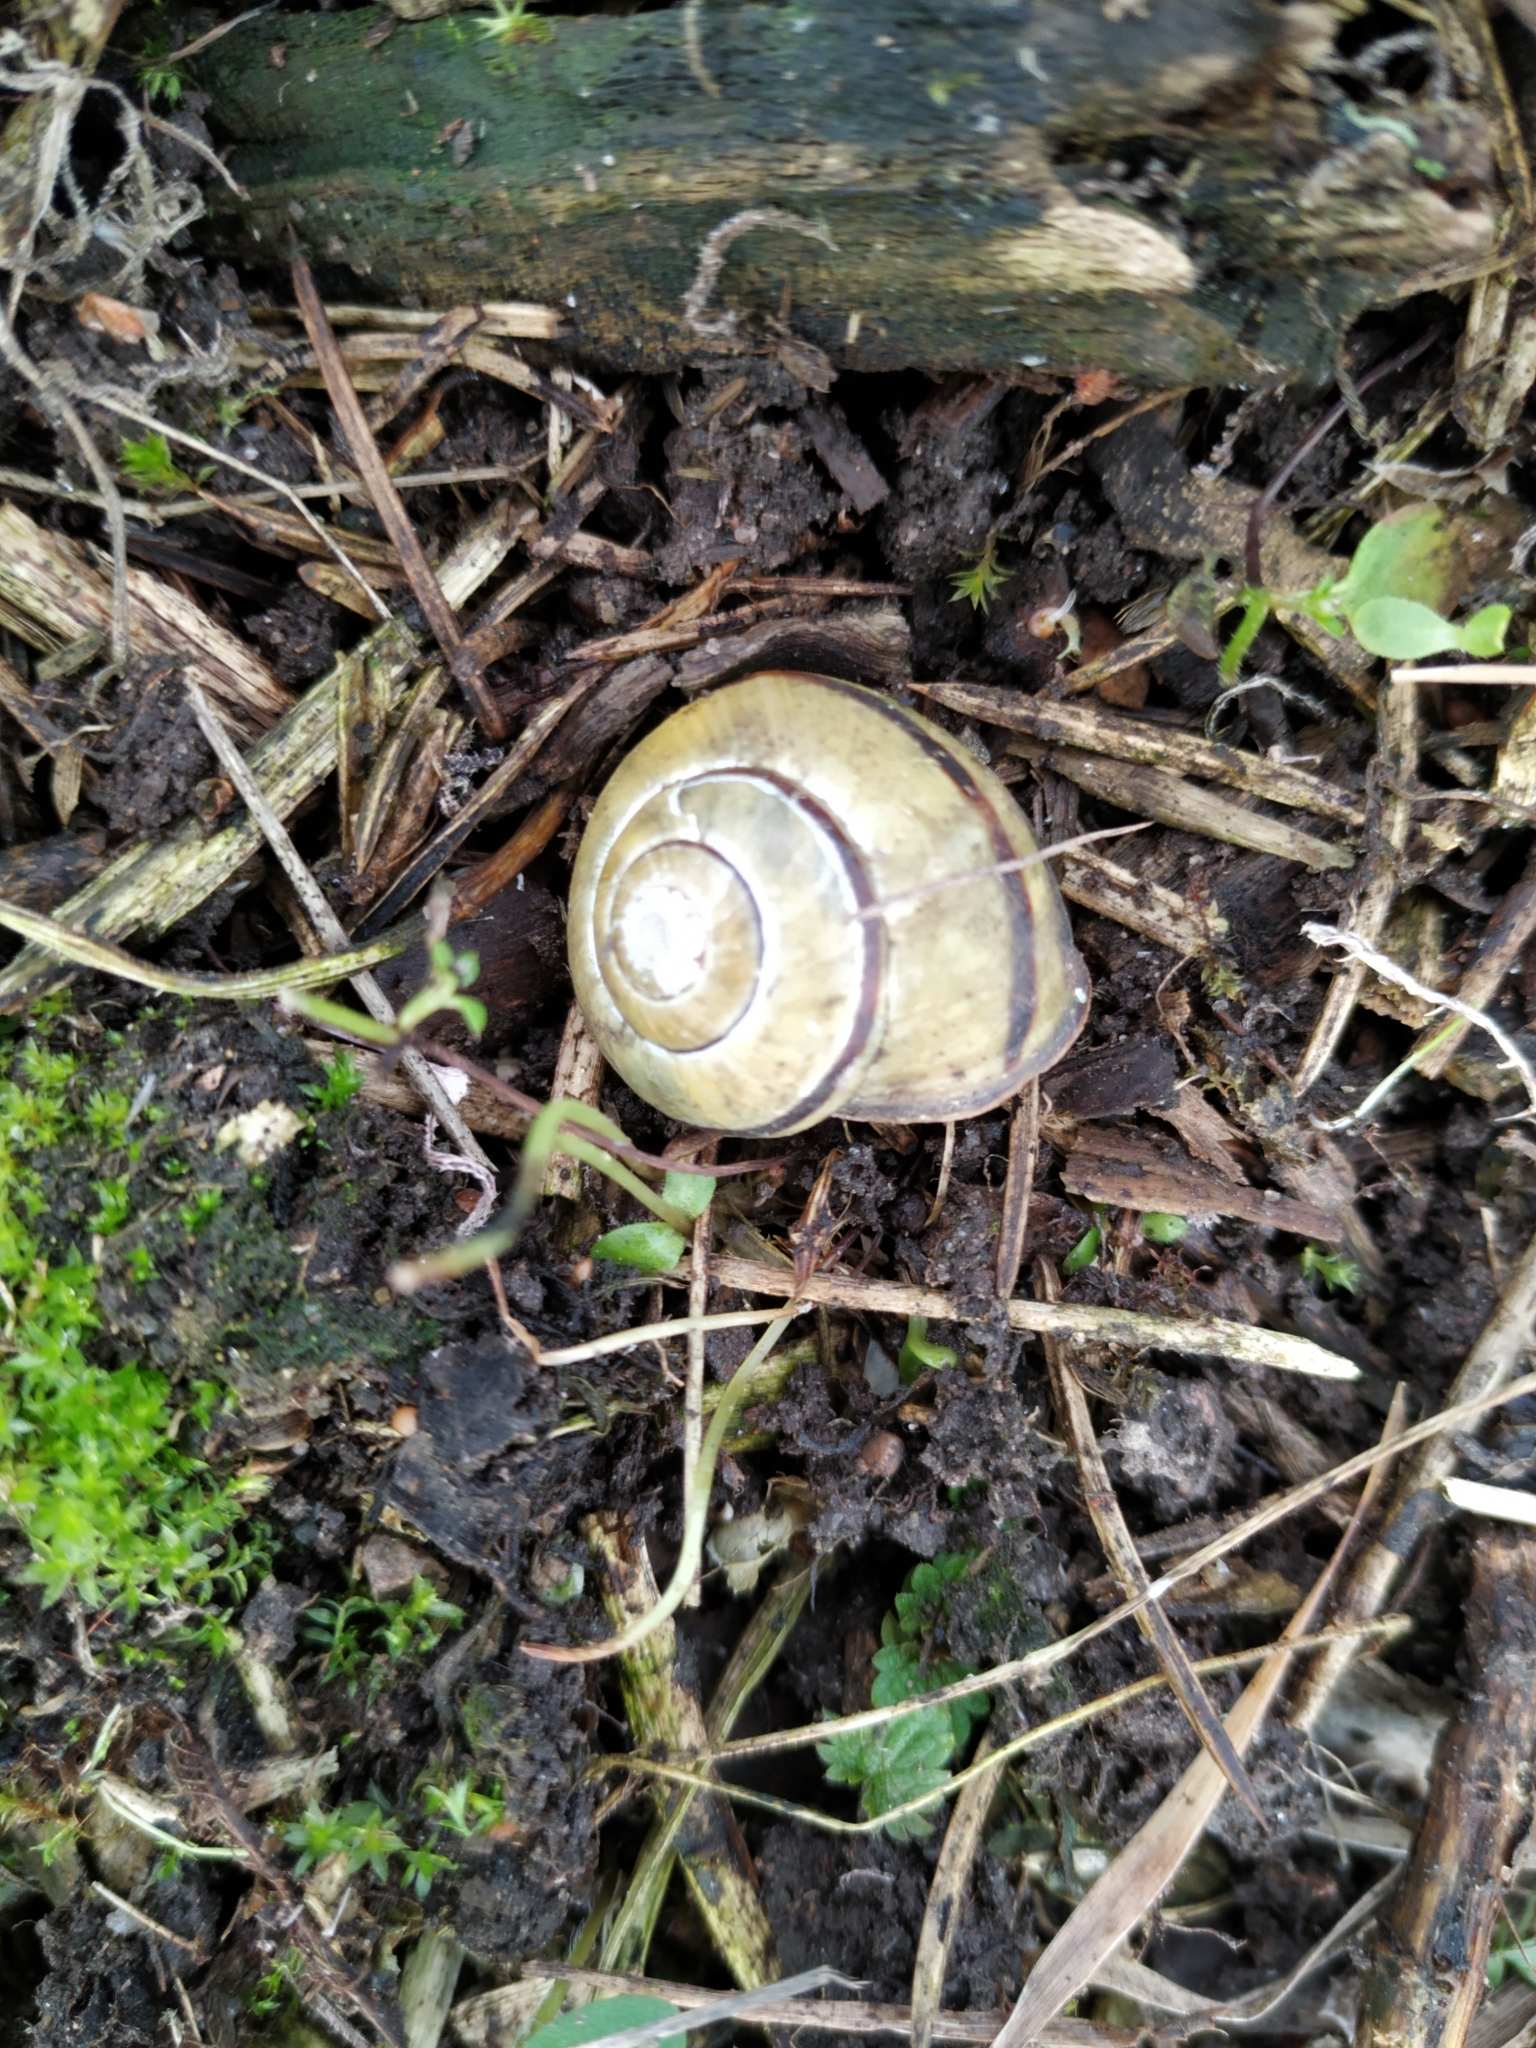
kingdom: Animalia
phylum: Mollusca
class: Gastropoda
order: Stylommatophora
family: Helicidae
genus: Cepaea
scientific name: Cepaea nemoralis
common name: Grovesnail
